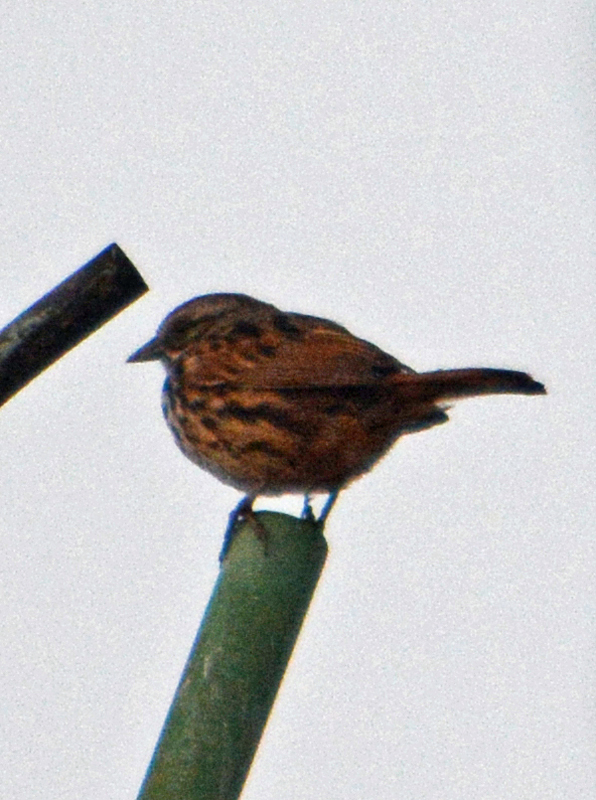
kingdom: Animalia
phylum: Chordata
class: Aves
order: Passeriformes
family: Passerellidae
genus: Melospiza
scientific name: Melospiza melodia
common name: Song sparrow
